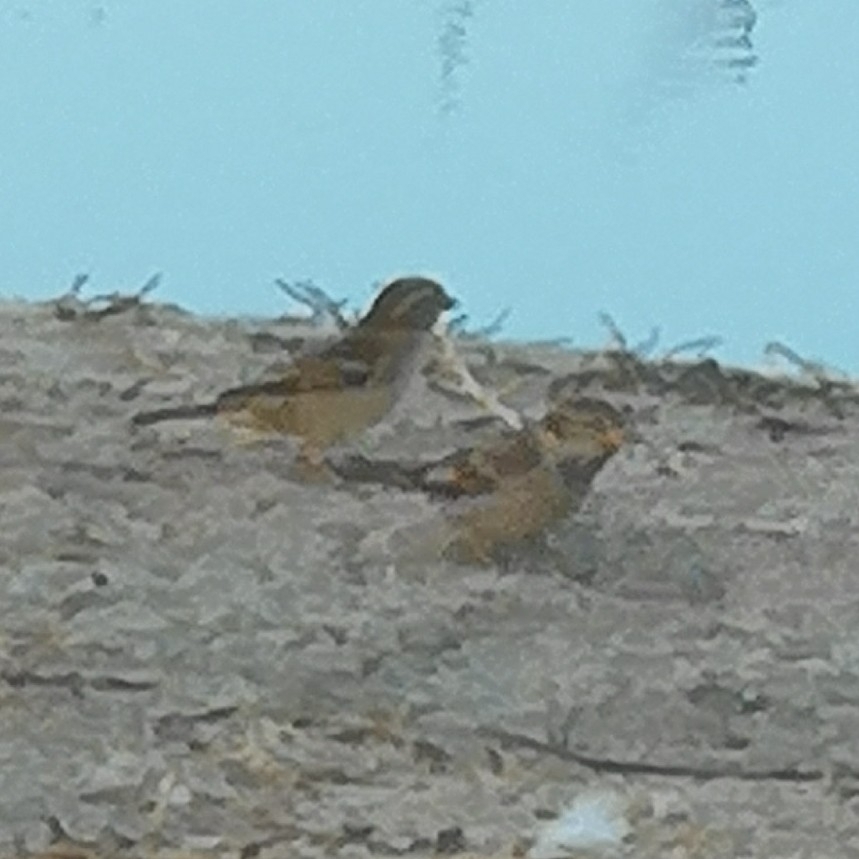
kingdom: Animalia
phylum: Chordata
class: Aves
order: Passeriformes
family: Passeridae
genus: Passer
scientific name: Passer italiae
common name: Italian sparrow
